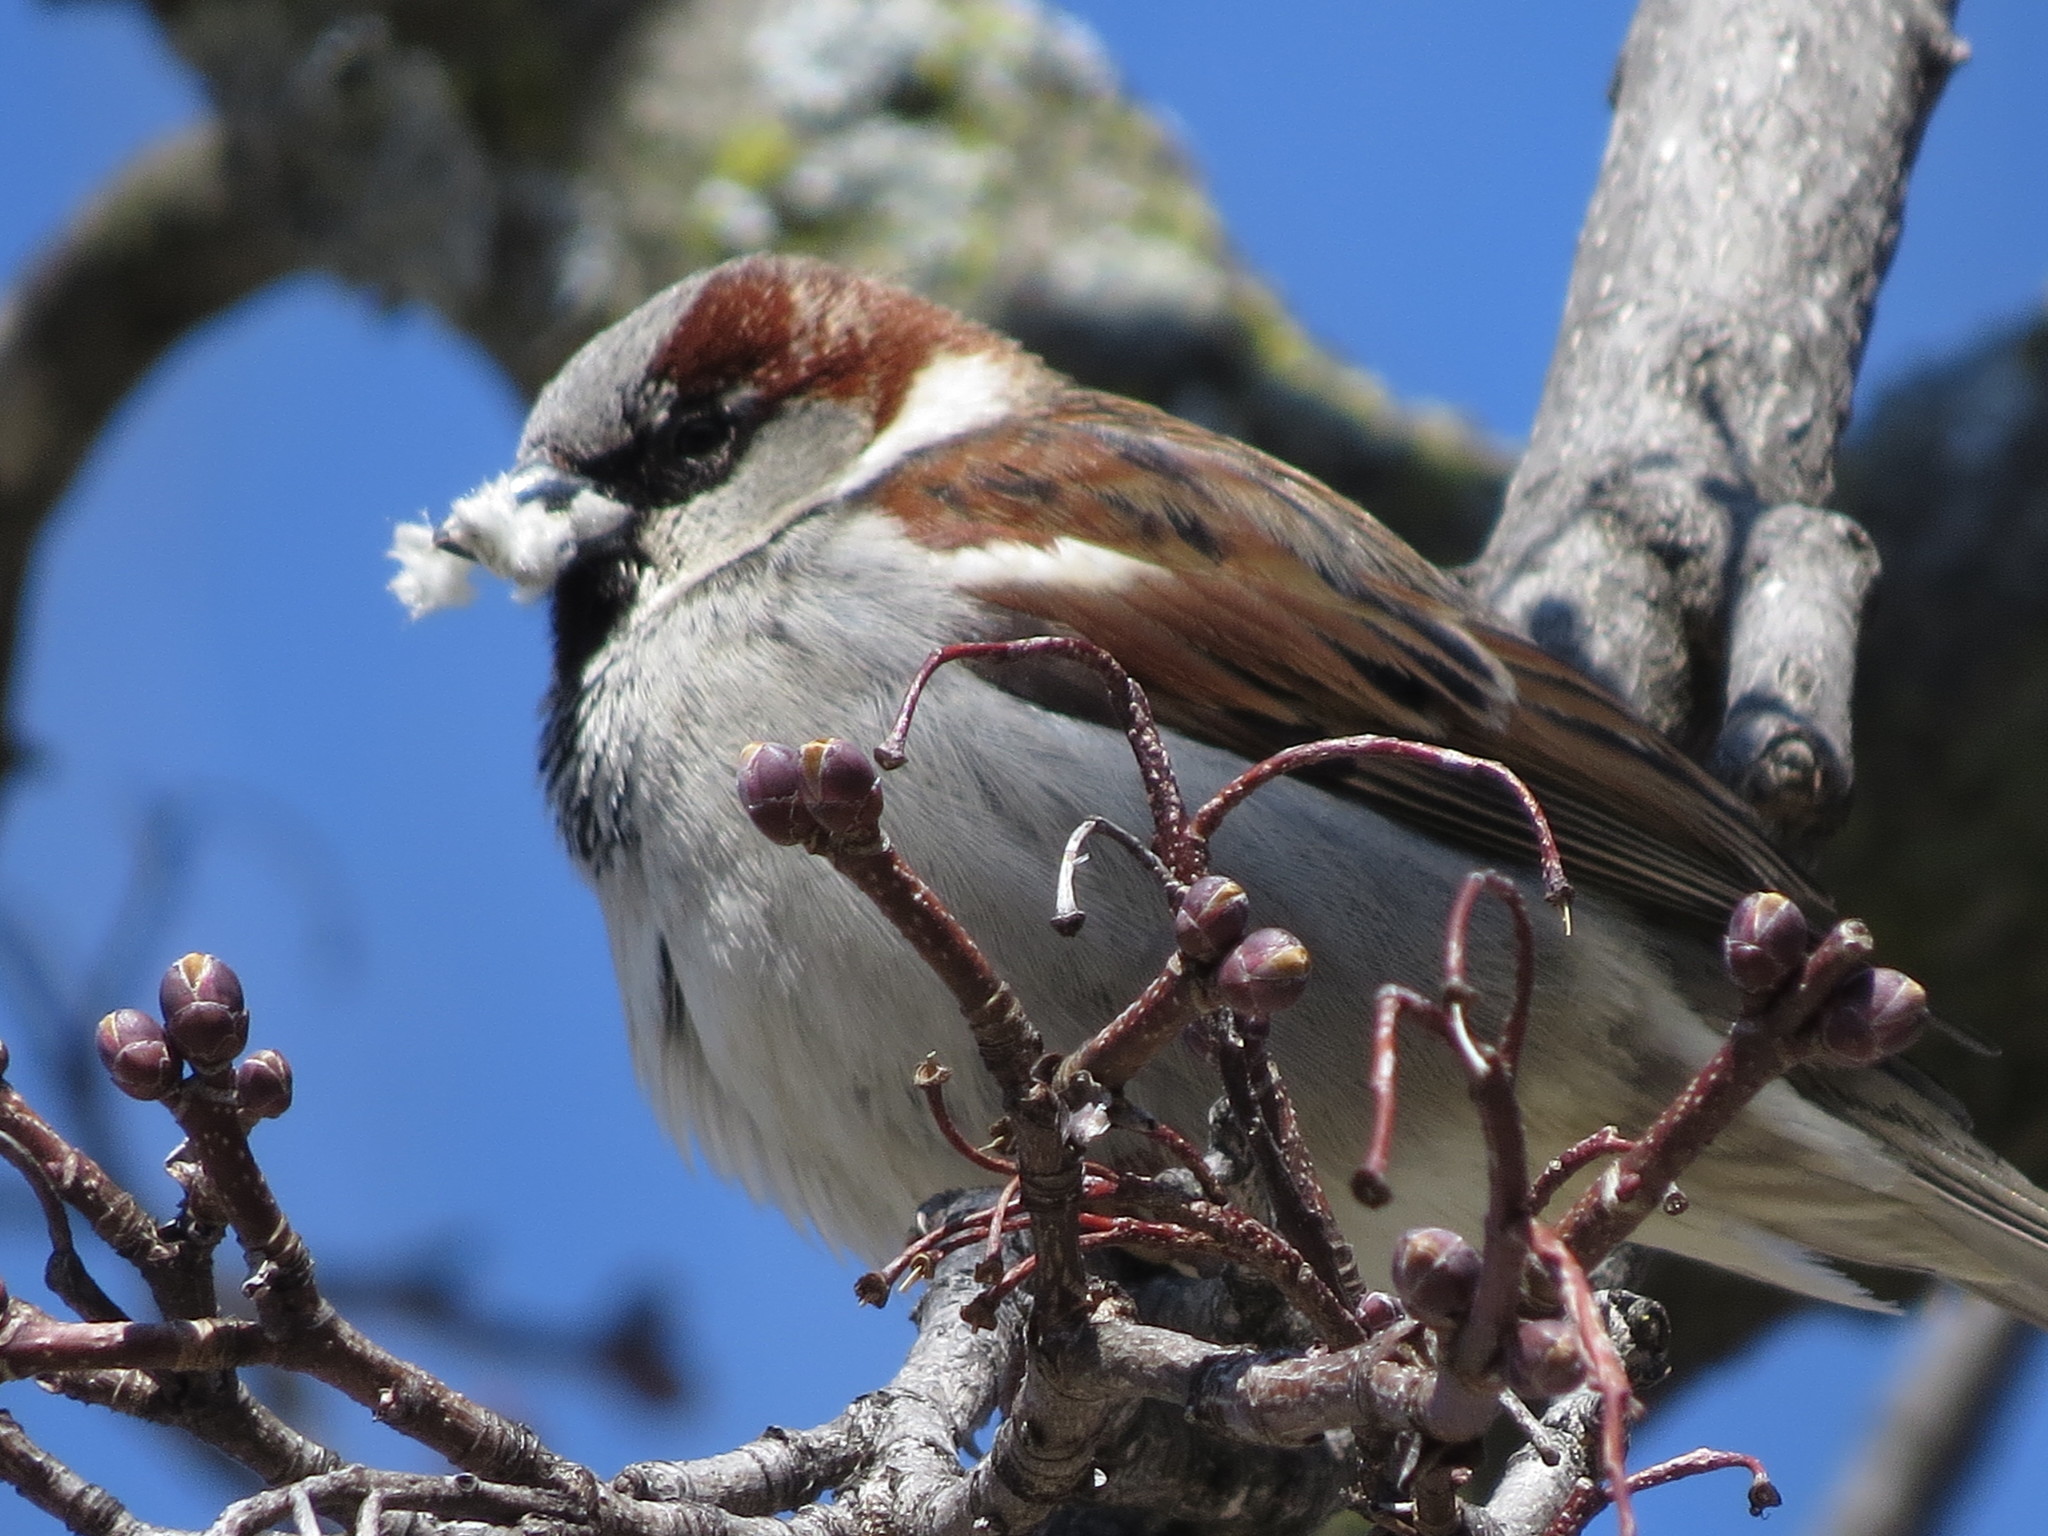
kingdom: Animalia
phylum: Chordata
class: Aves
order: Passeriformes
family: Passeridae
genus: Passer
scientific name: Passer domesticus
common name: House sparrow
